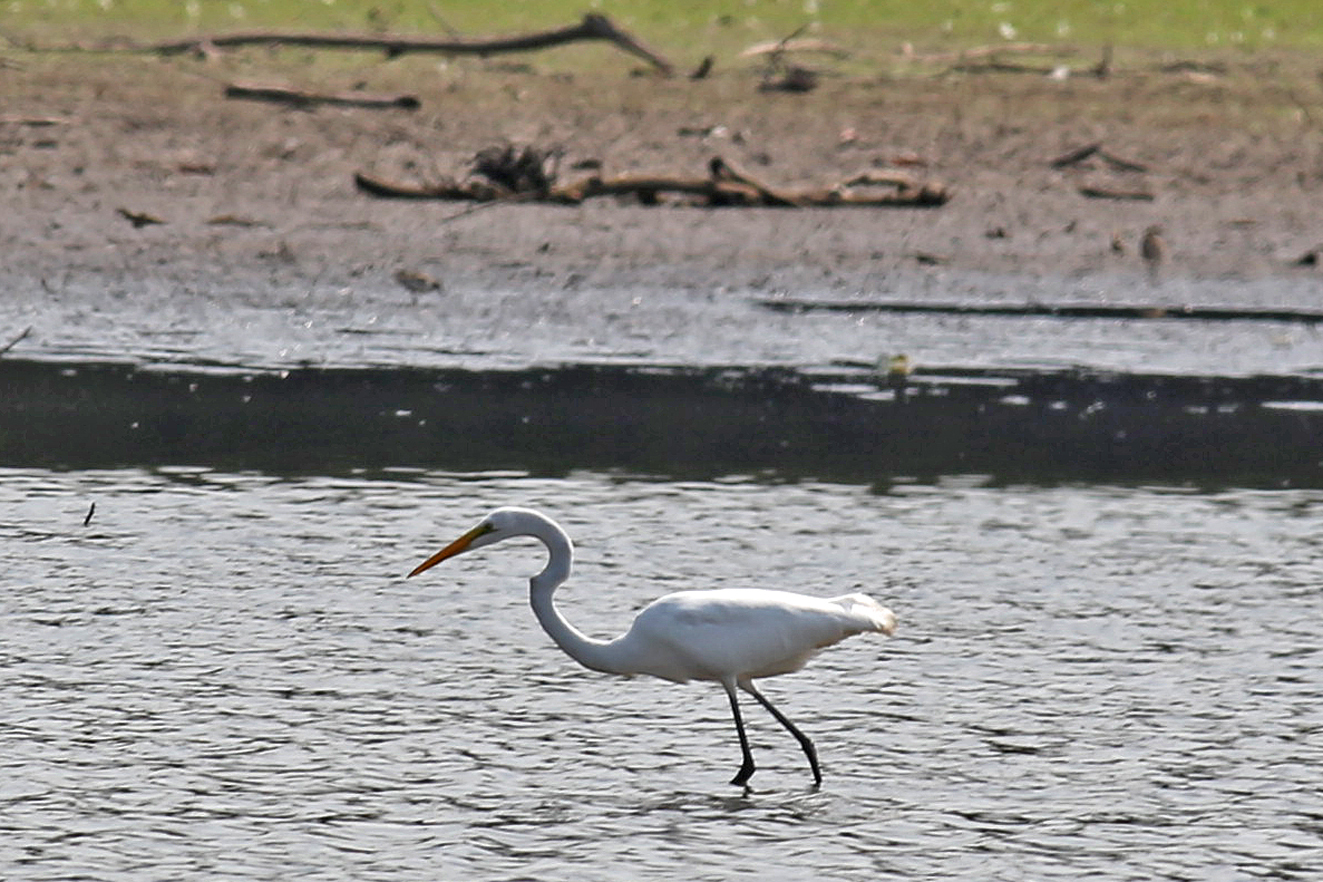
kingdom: Animalia
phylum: Chordata
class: Aves
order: Pelecaniformes
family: Ardeidae
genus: Ardea
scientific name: Ardea alba
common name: Great egret
